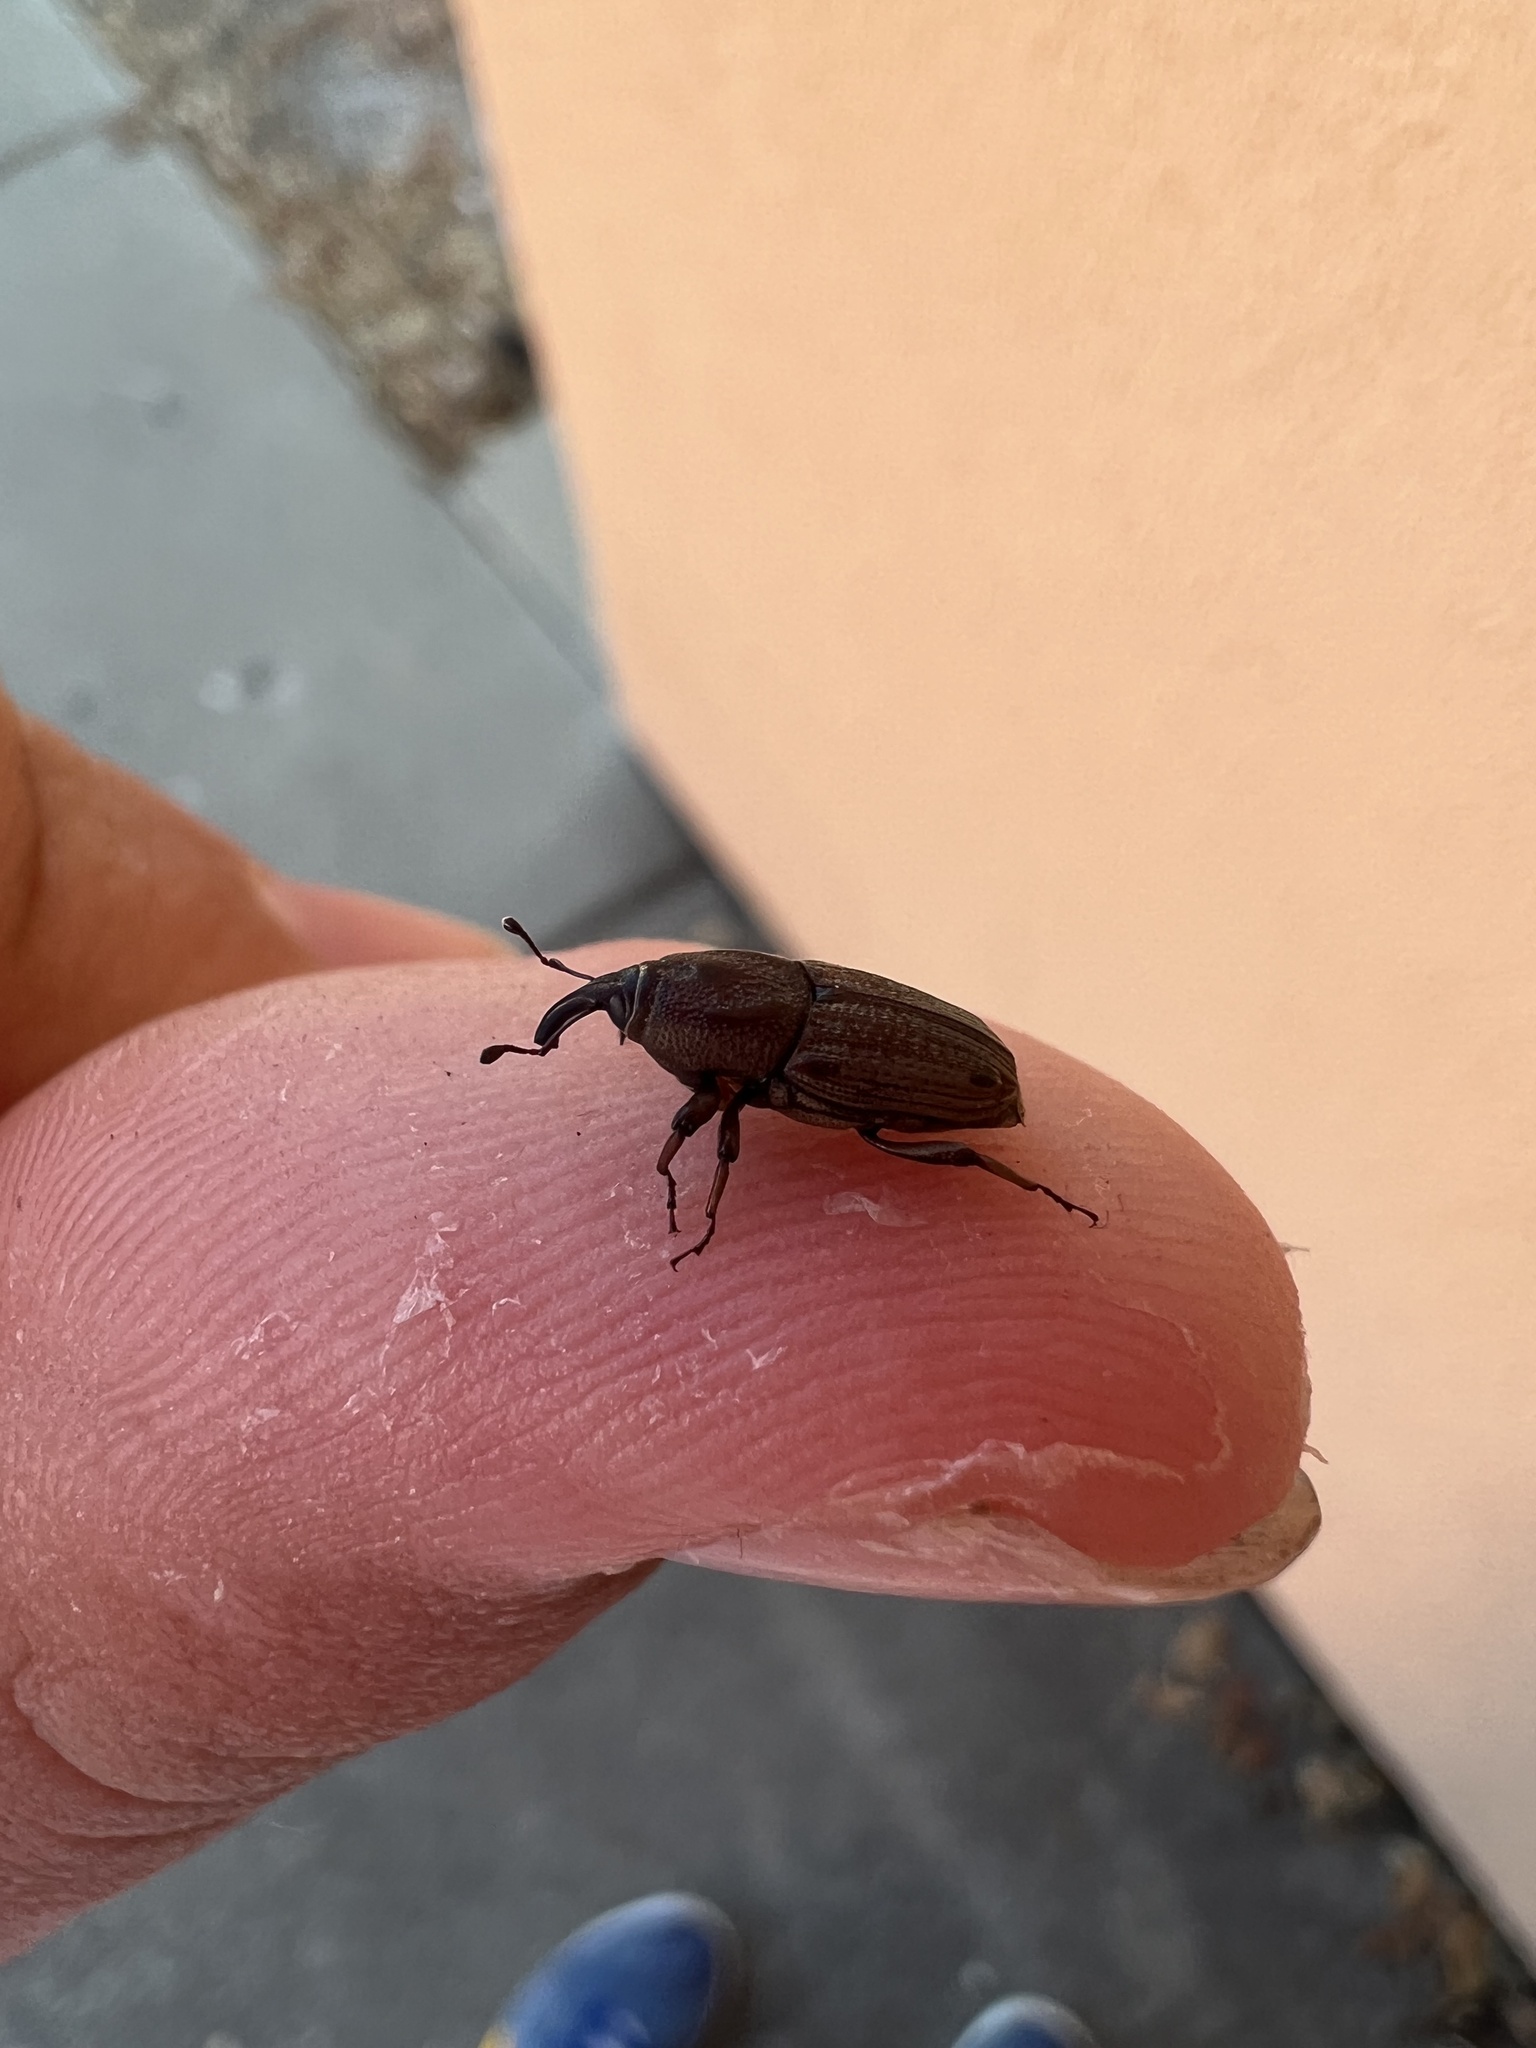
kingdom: Animalia
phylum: Arthropoda
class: Insecta
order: Coleoptera
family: Dryophthoridae
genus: Sphenophorus
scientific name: Sphenophorus venatus
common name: Hunting billbug
